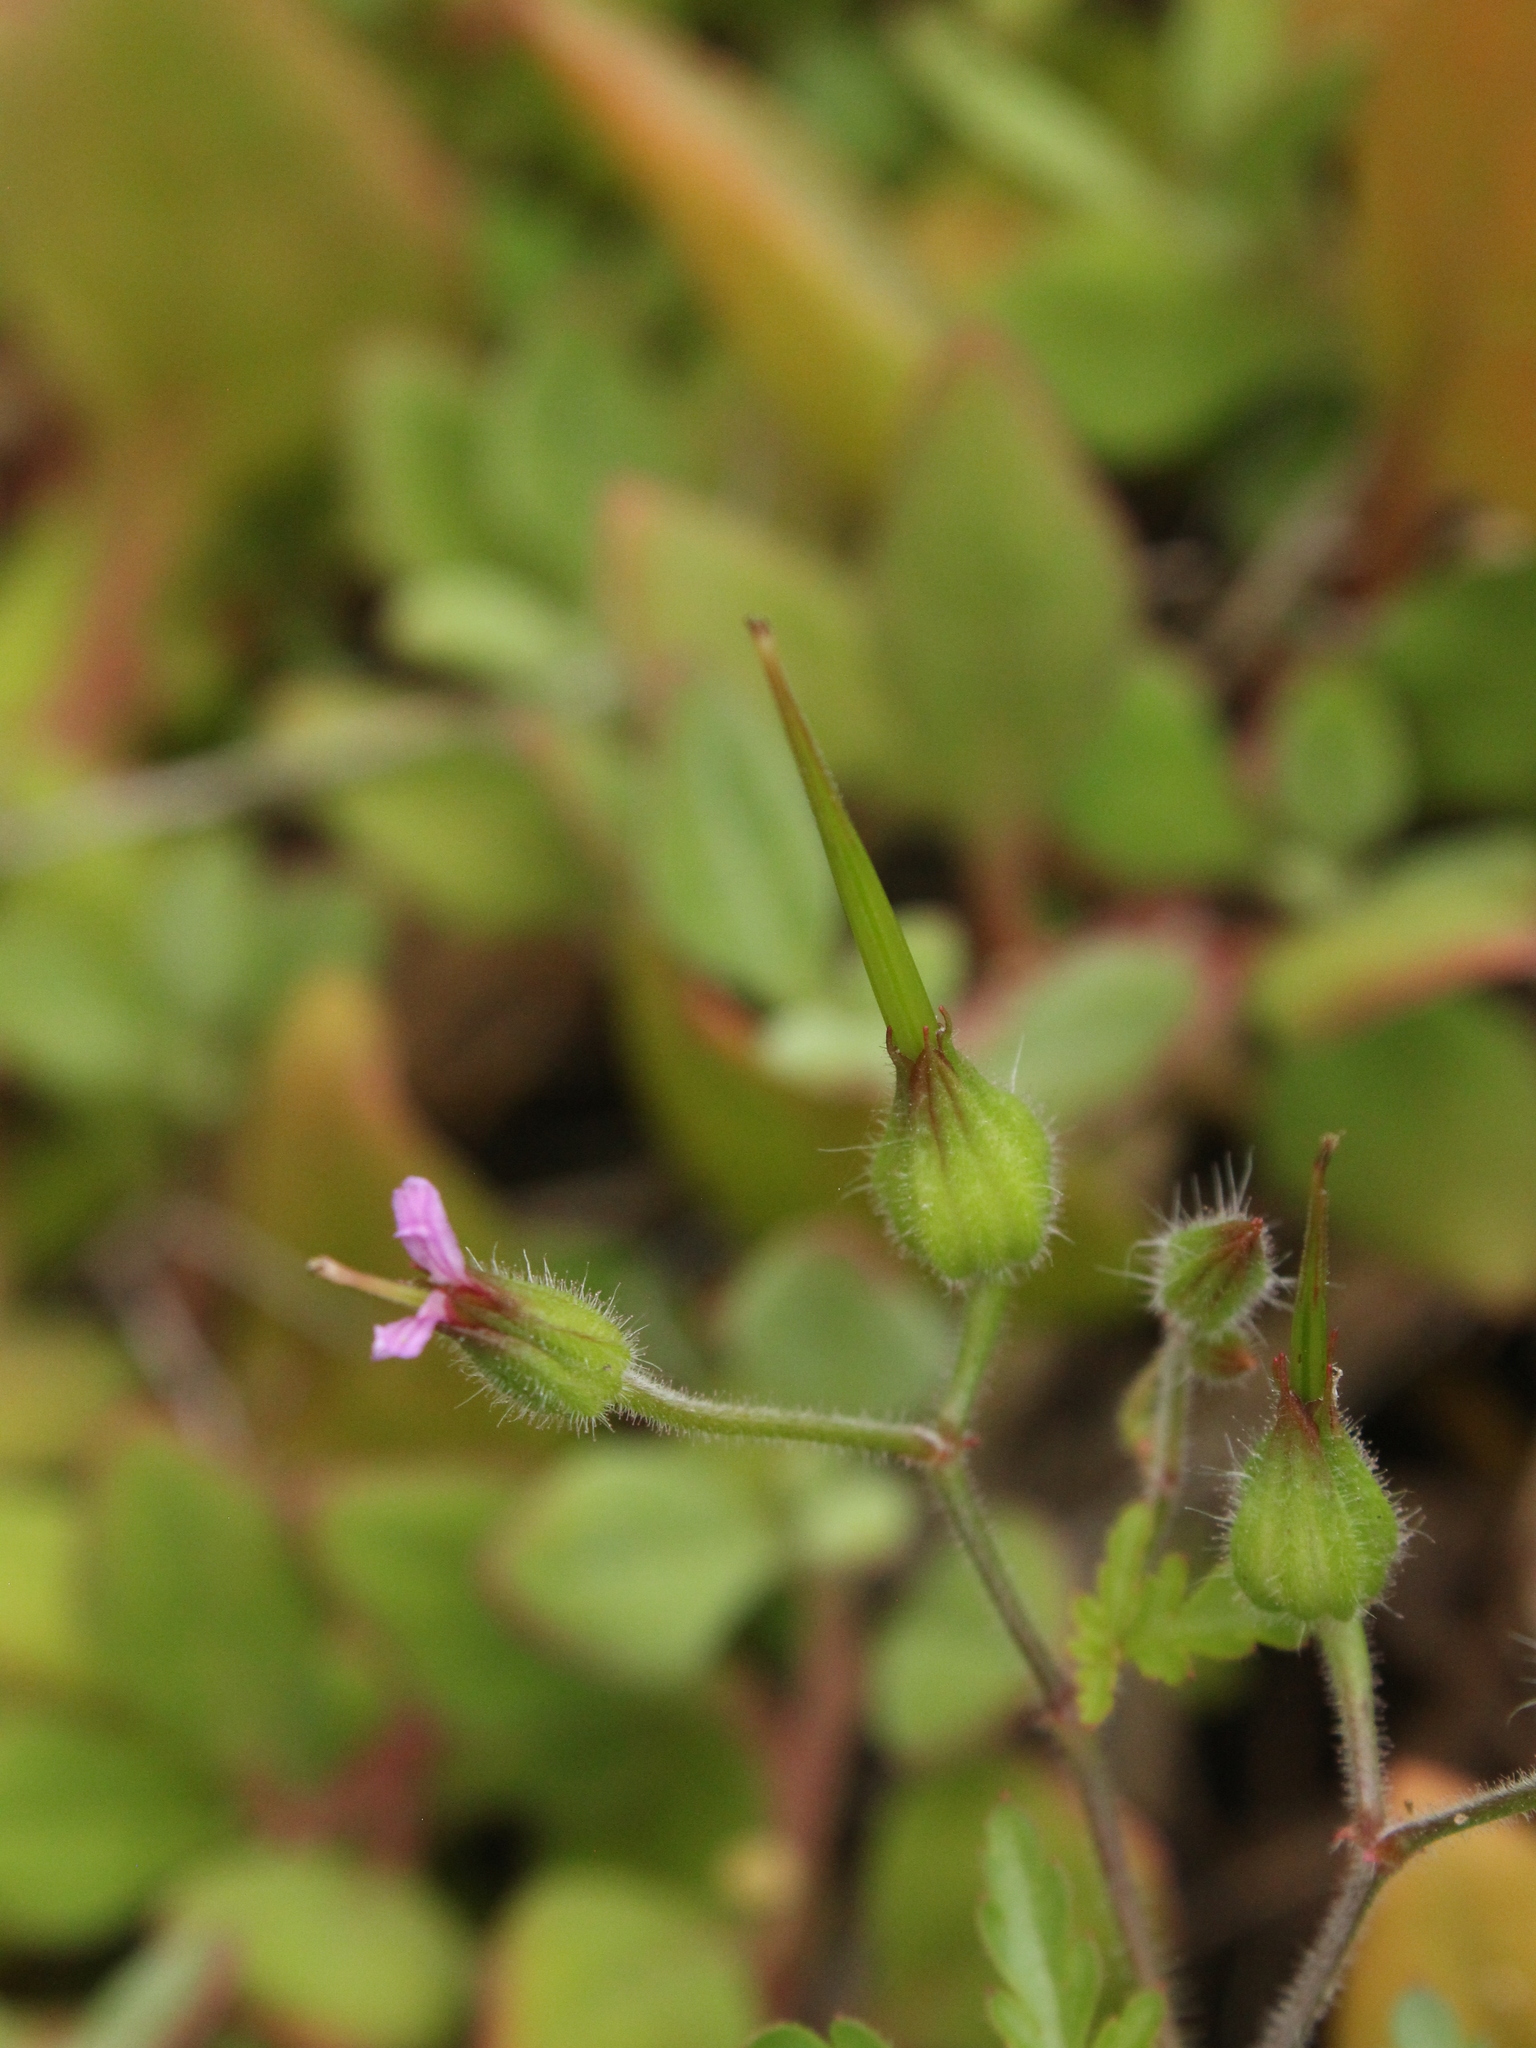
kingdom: Plantae
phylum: Tracheophyta
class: Magnoliopsida
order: Geraniales
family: Geraniaceae
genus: Geranium
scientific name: Geranium purpureum
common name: Little-robin
